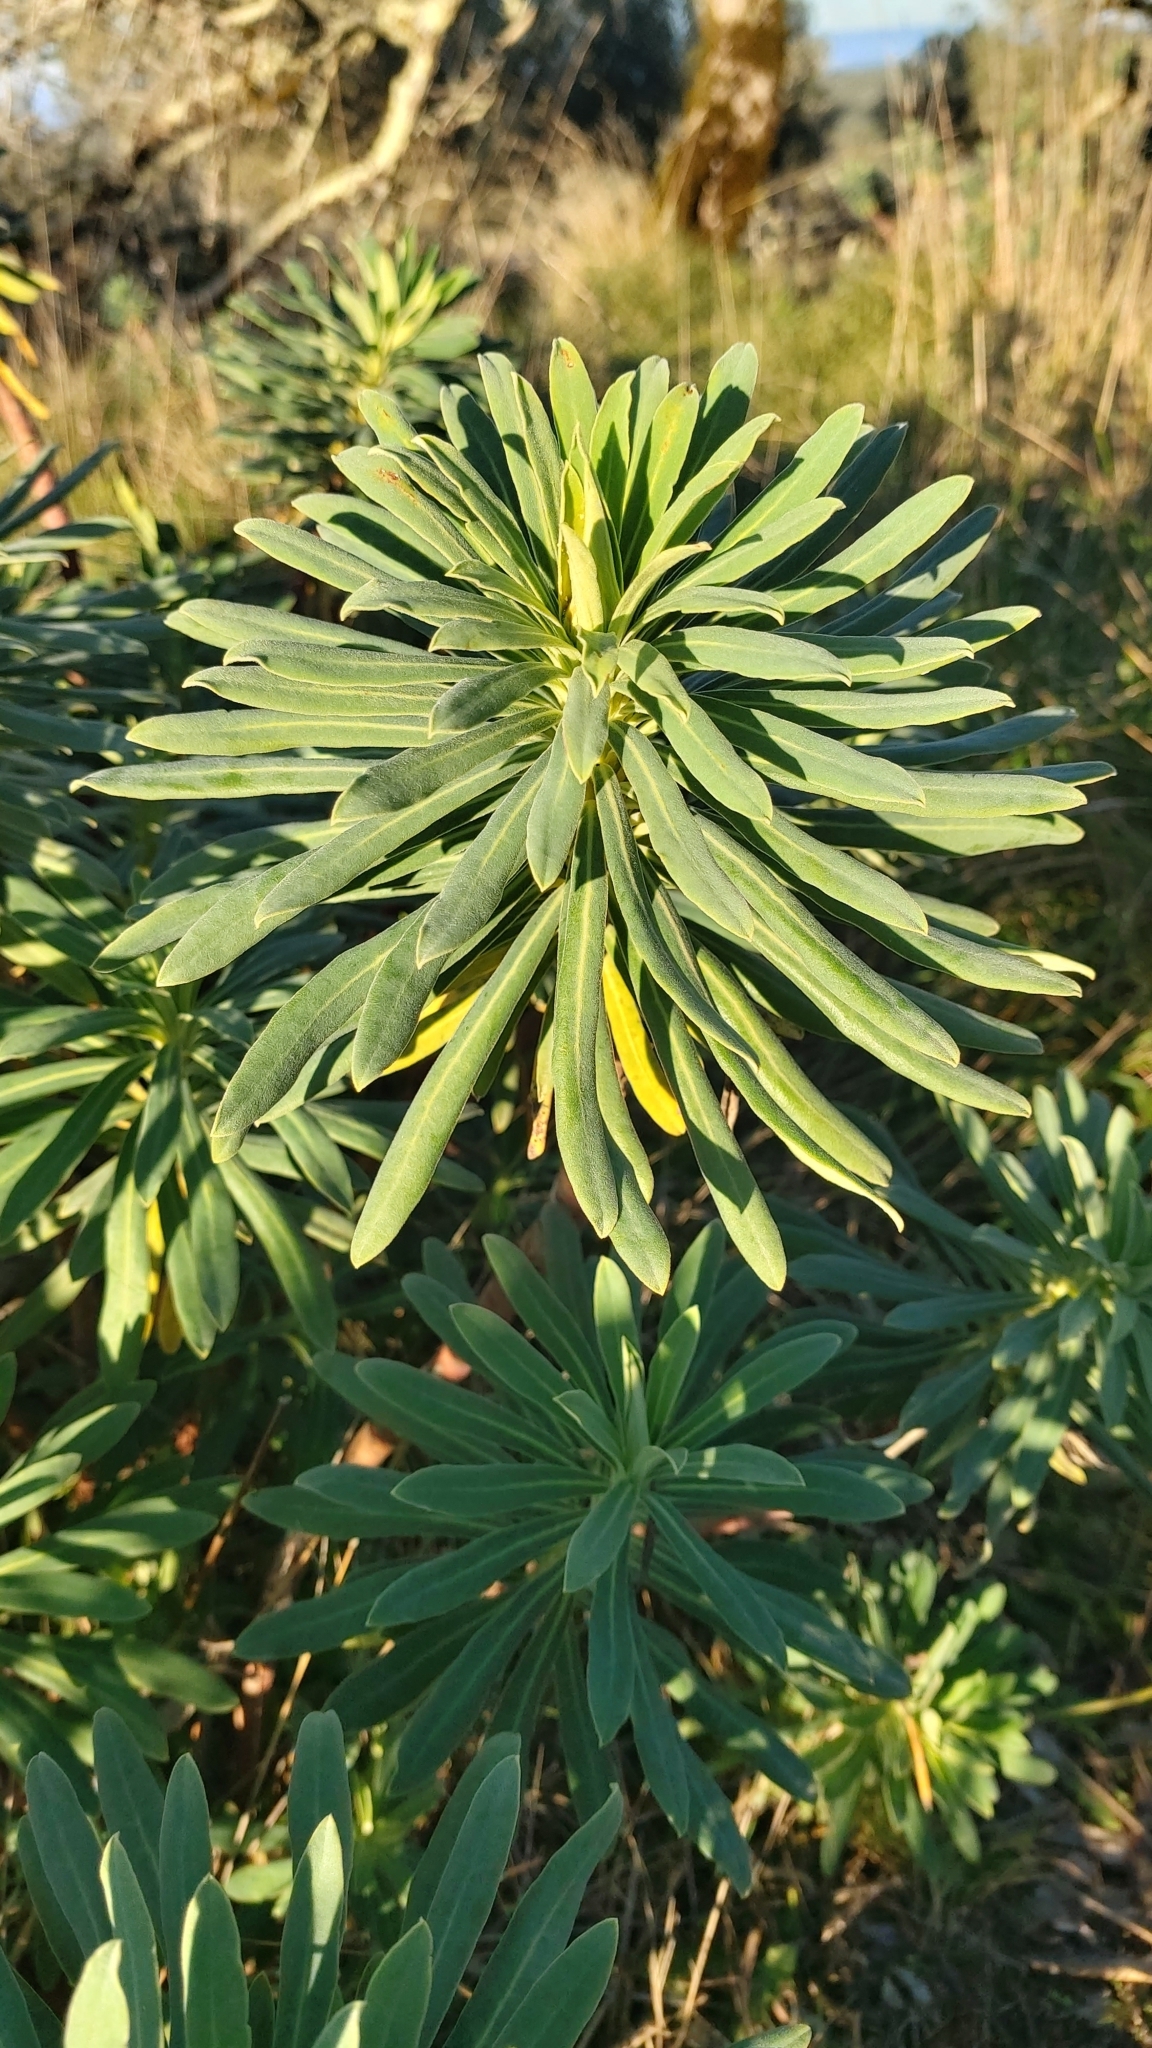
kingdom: Plantae
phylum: Tracheophyta
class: Magnoliopsida
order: Malpighiales
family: Euphorbiaceae
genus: Euphorbia
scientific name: Euphorbia characias
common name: Mediterranean spurge
